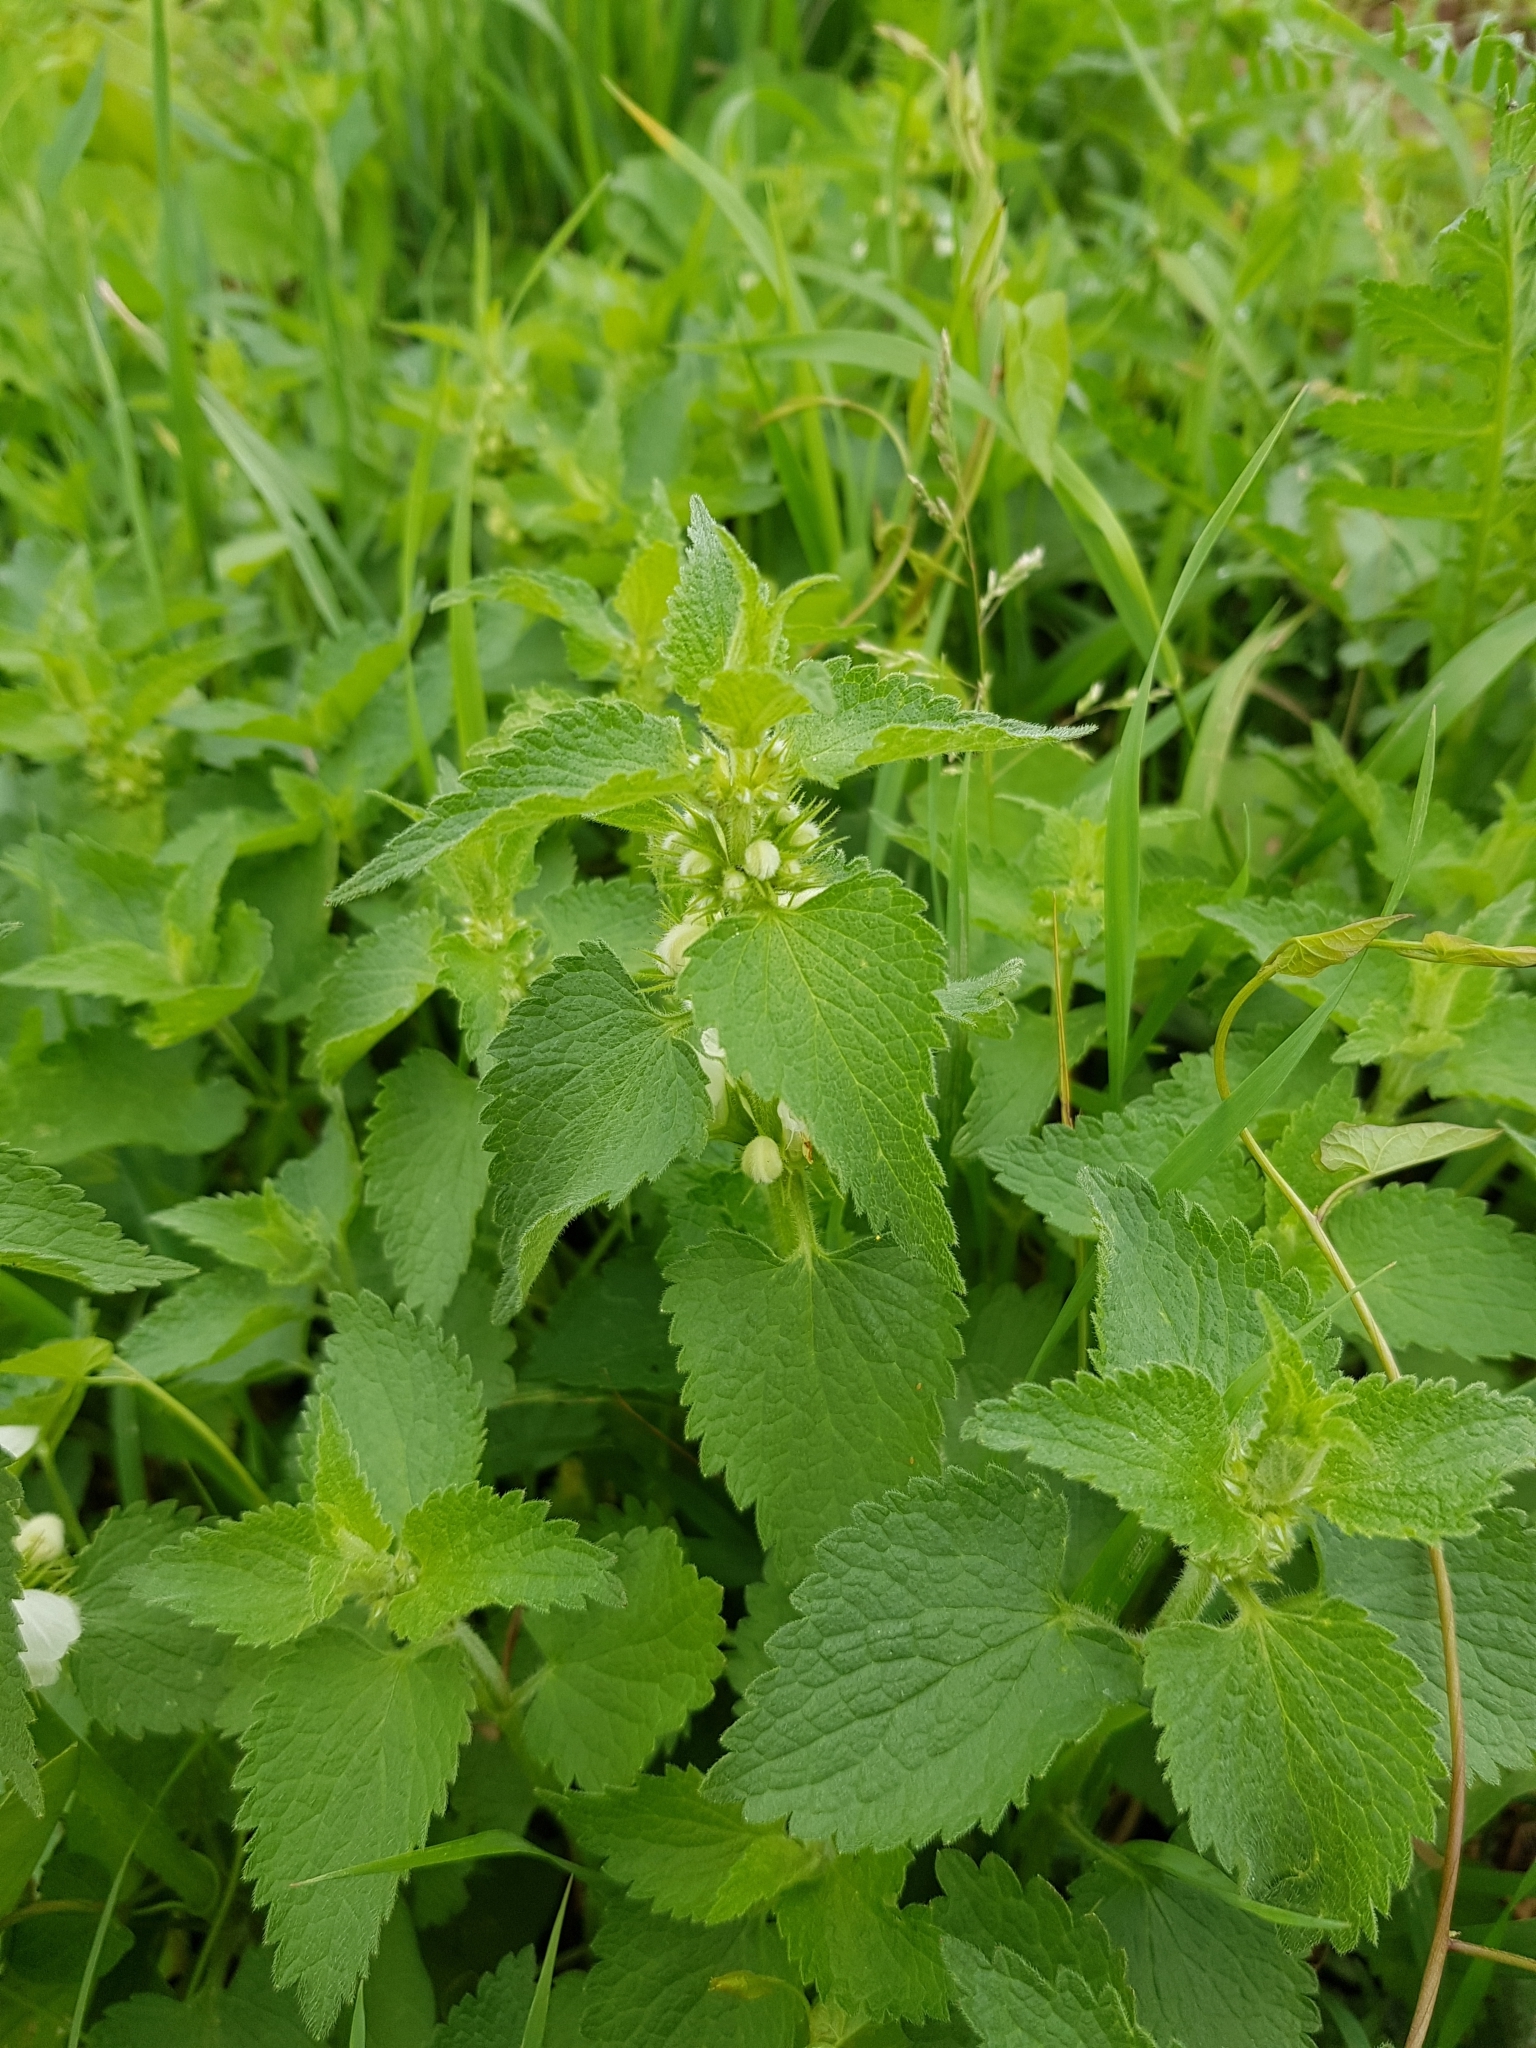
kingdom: Plantae
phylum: Tracheophyta
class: Magnoliopsida
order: Lamiales
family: Lamiaceae
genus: Lamium
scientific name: Lamium album
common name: White dead-nettle
